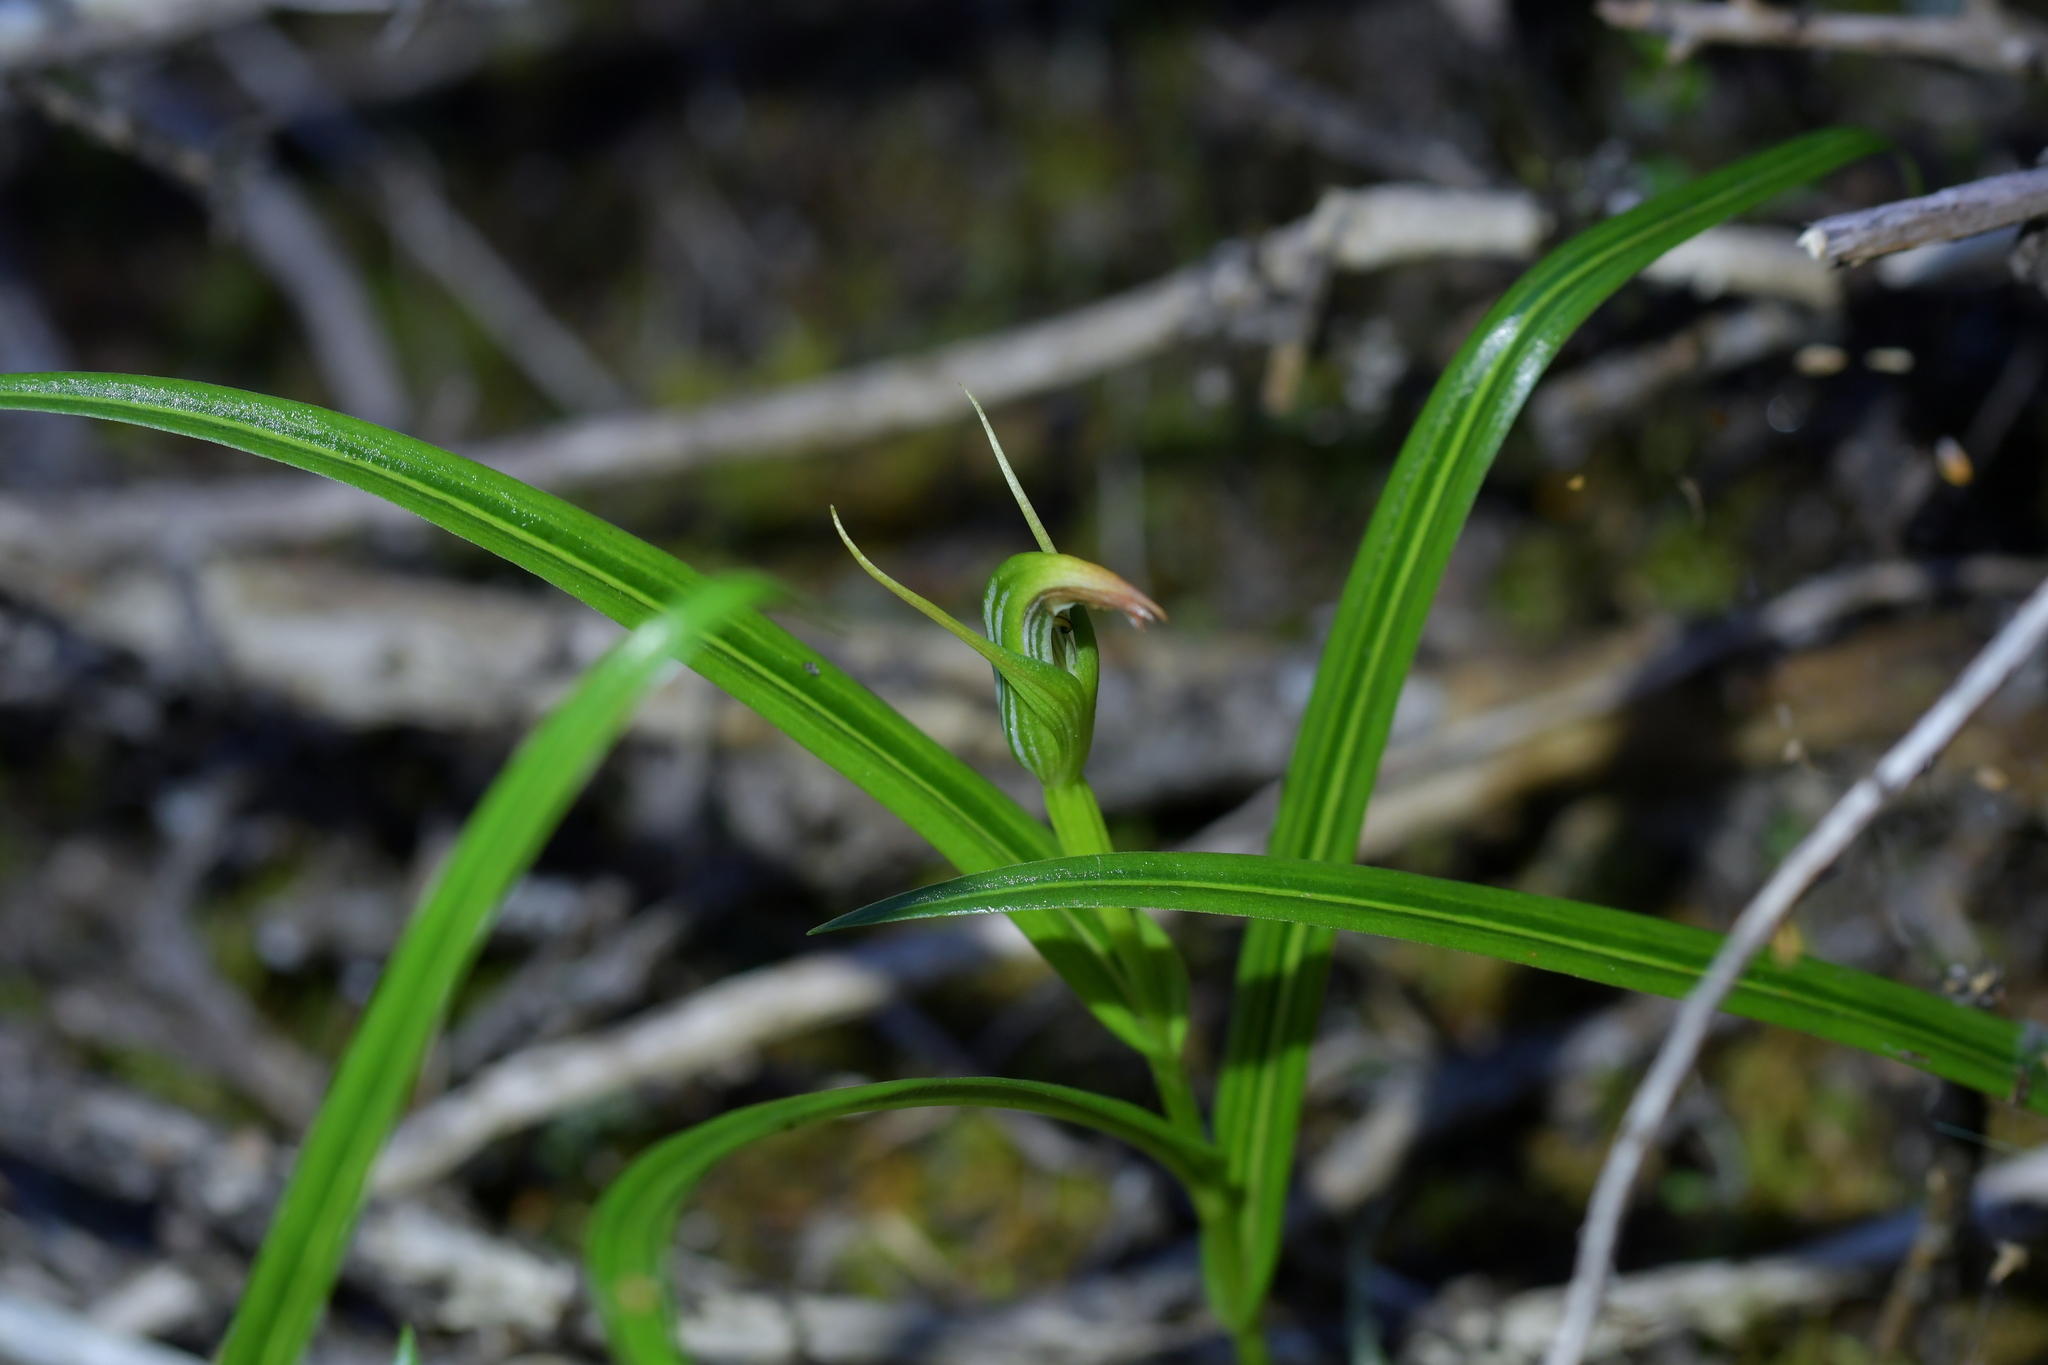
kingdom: Plantae
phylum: Tracheophyta
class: Liliopsida
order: Asparagales
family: Orchidaceae
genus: Pterostylis
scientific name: Pterostylis irsoniana
